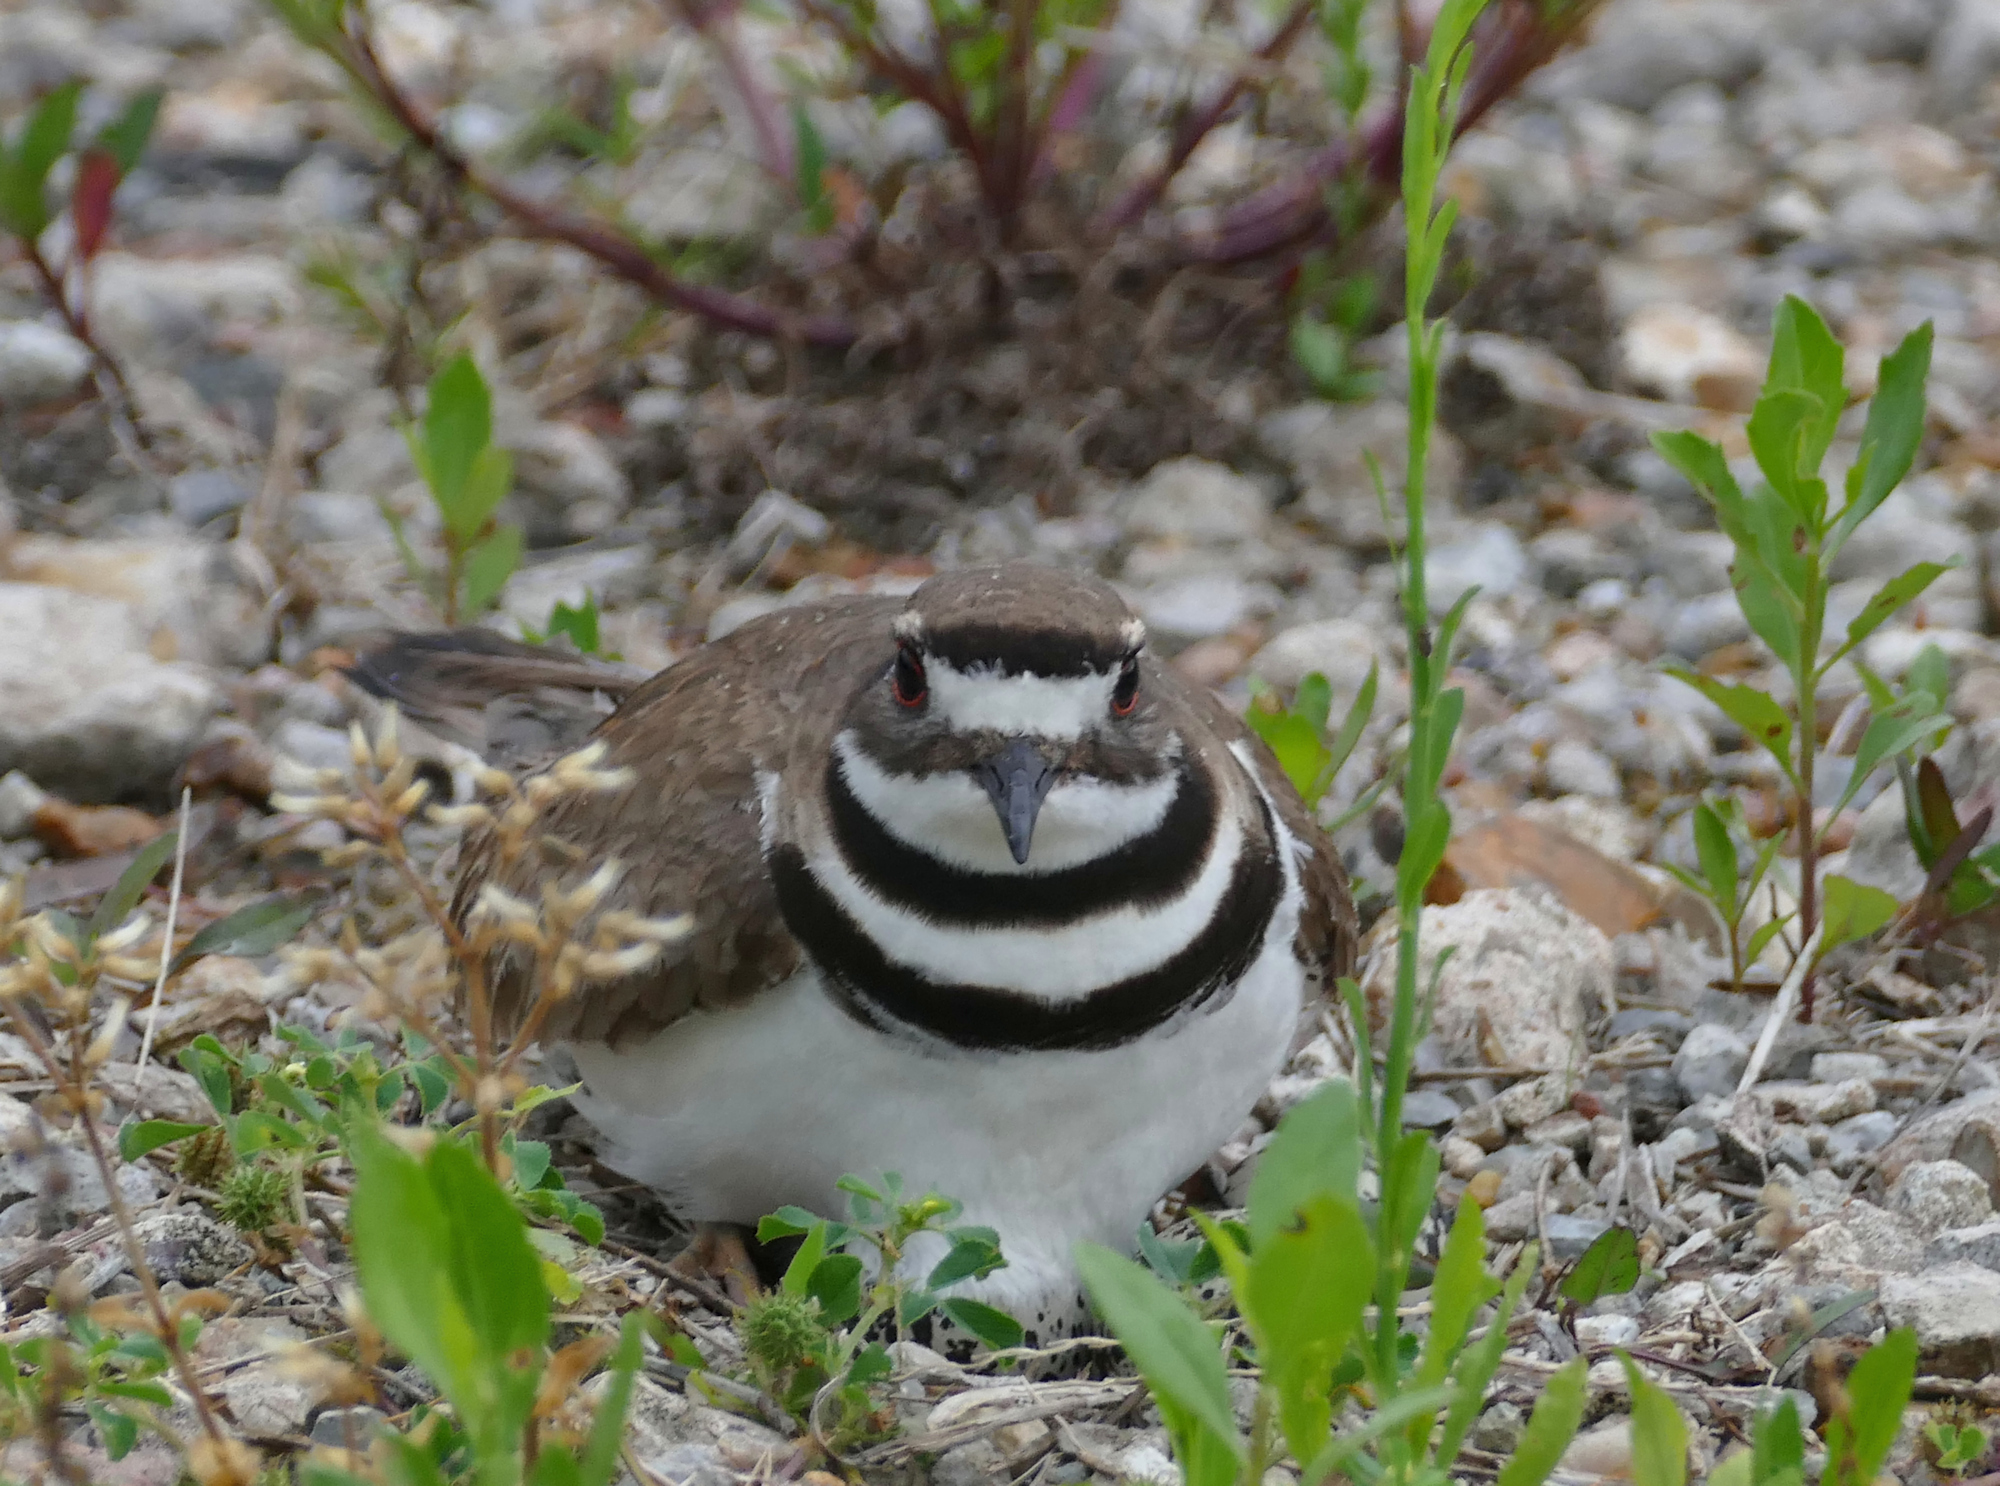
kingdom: Animalia
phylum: Chordata
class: Aves
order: Charadriiformes
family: Charadriidae
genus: Charadrius
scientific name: Charadrius vociferus
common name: Killdeer
